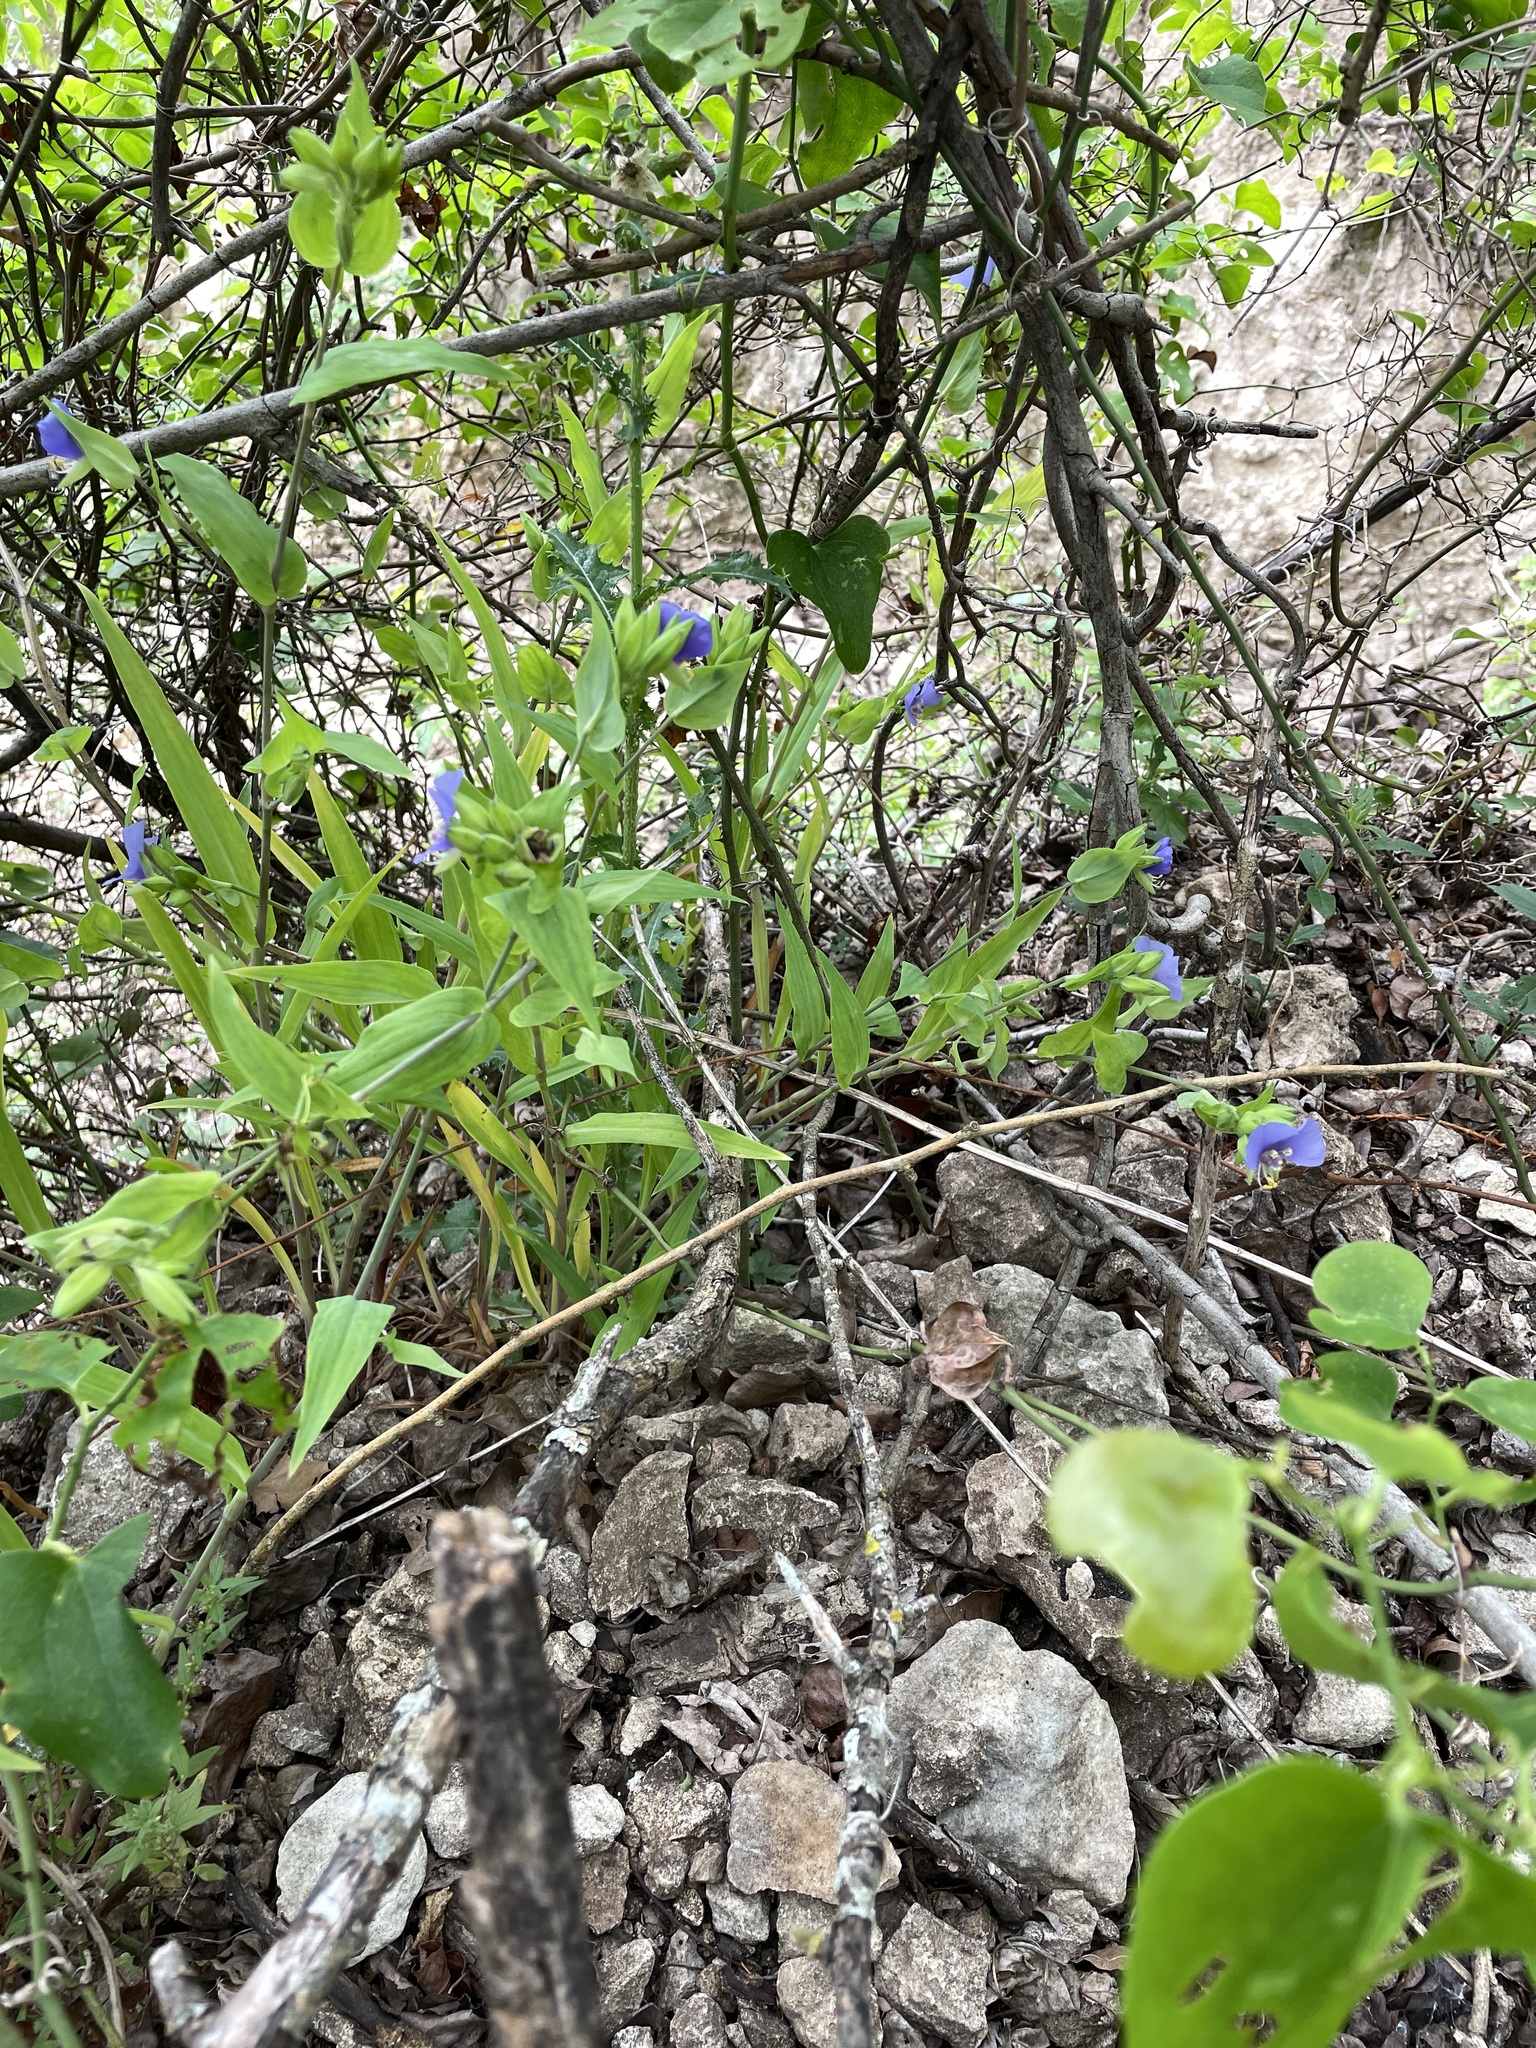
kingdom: Plantae
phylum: Tracheophyta
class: Liliopsida
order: Commelinales
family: Commelinaceae
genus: Tinantia
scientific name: Tinantia anomala
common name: False dayflower
